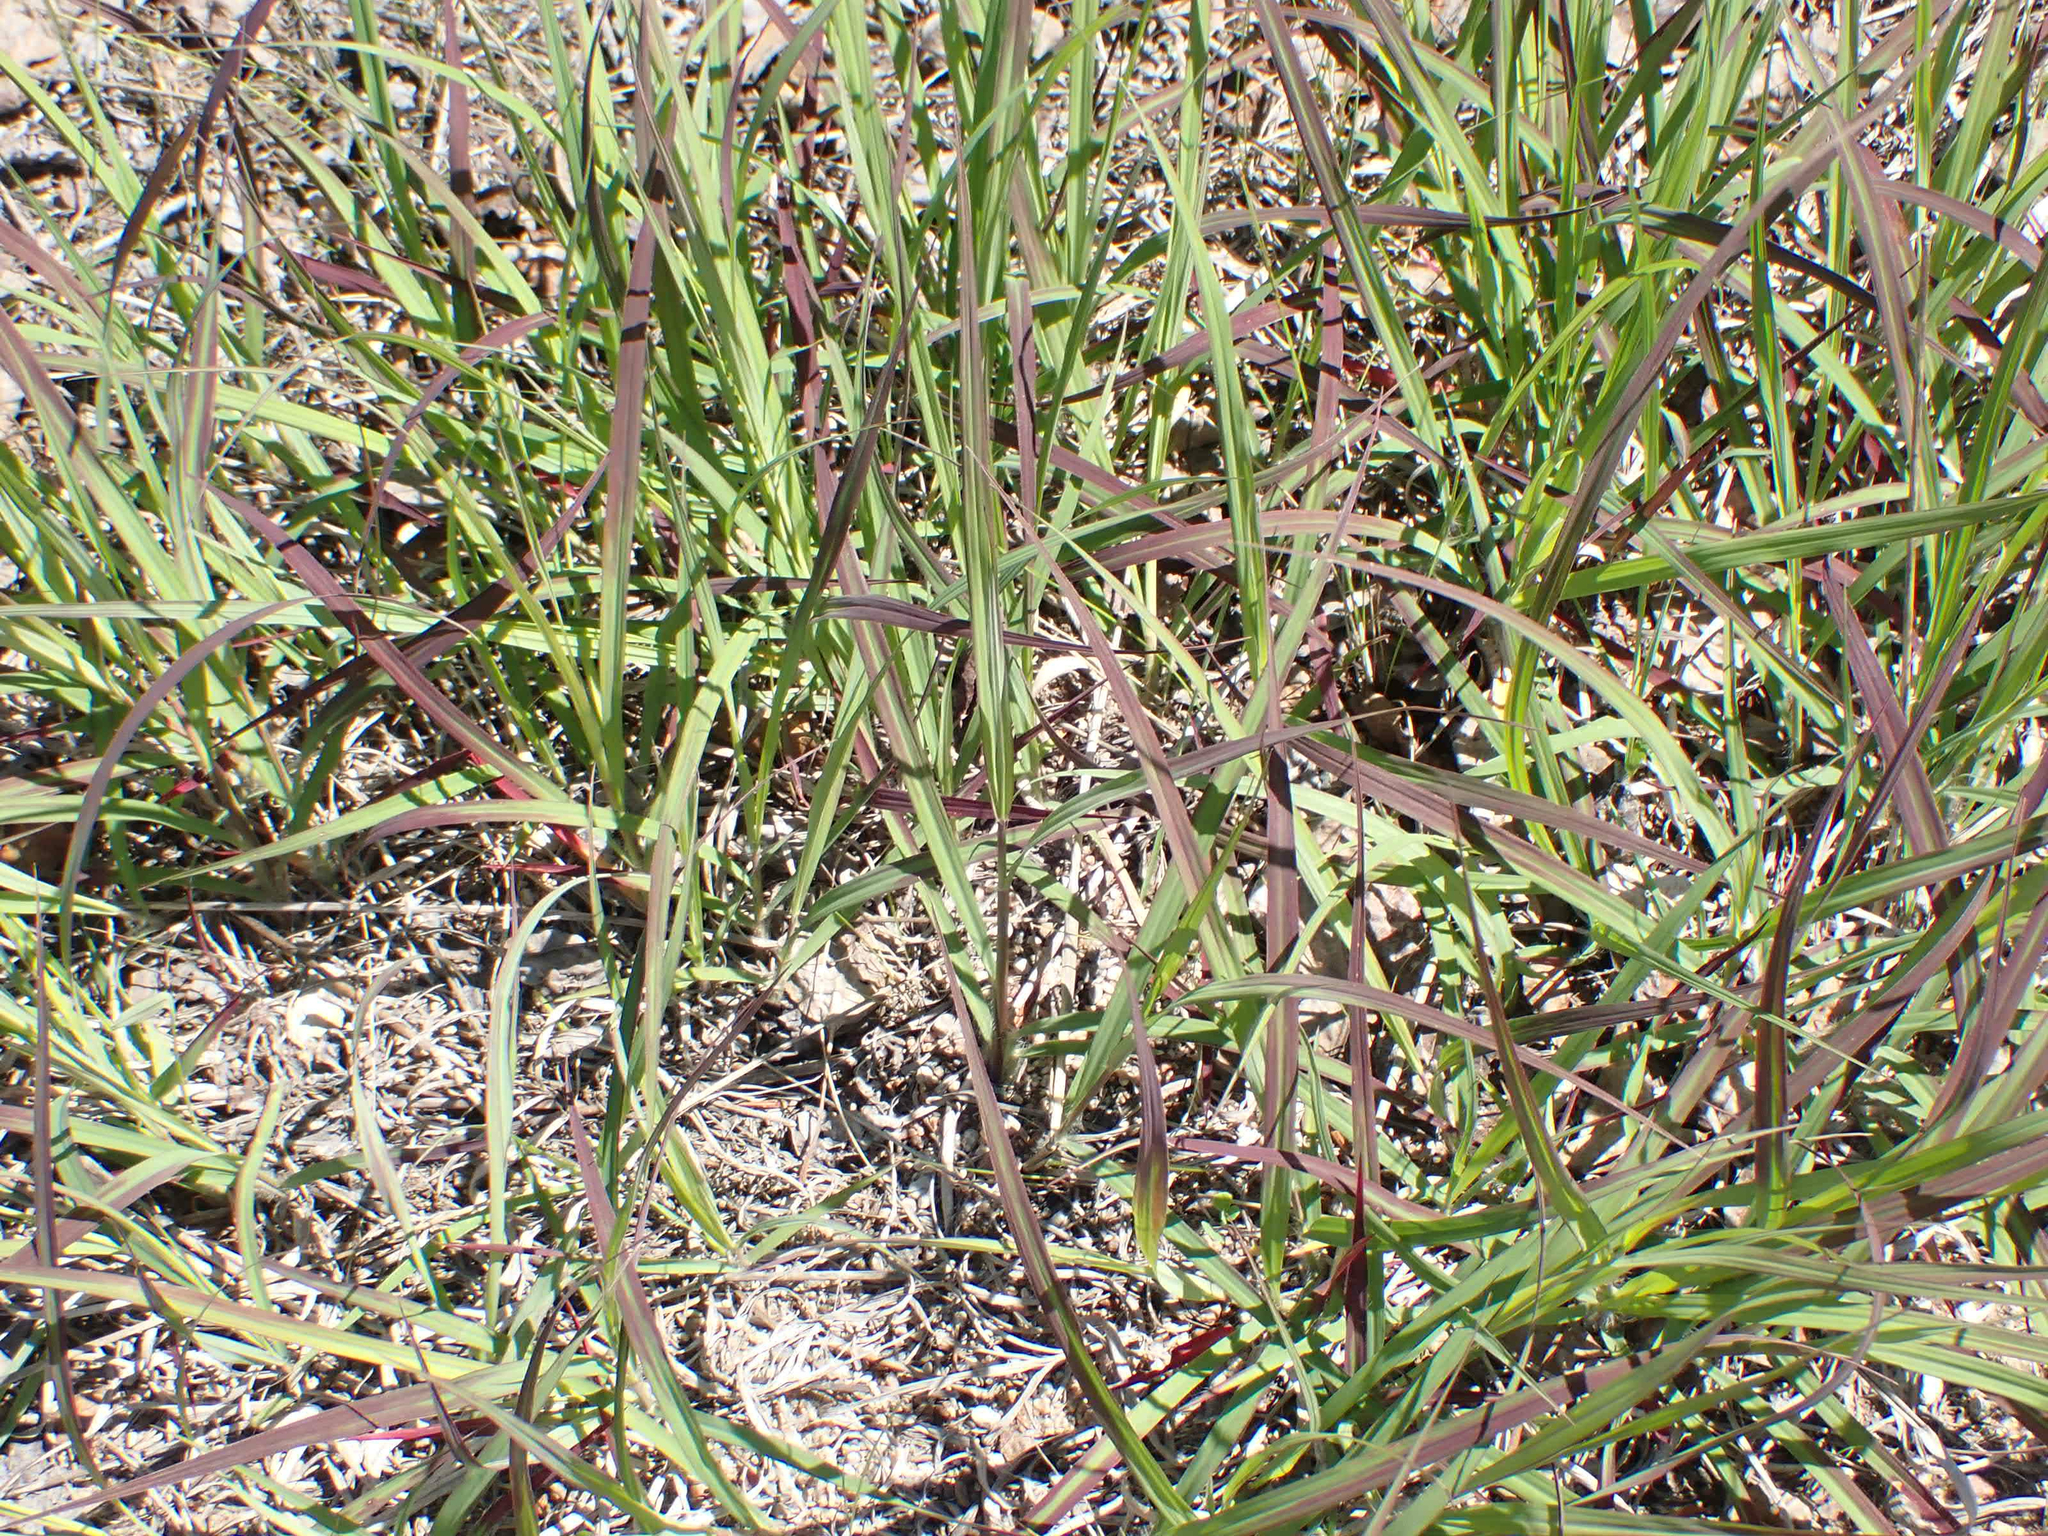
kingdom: Plantae
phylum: Tracheophyta
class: Liliopsida
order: Poales
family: Poaceae
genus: Andropogon
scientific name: Andropogon gerardi
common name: Big bluestem
